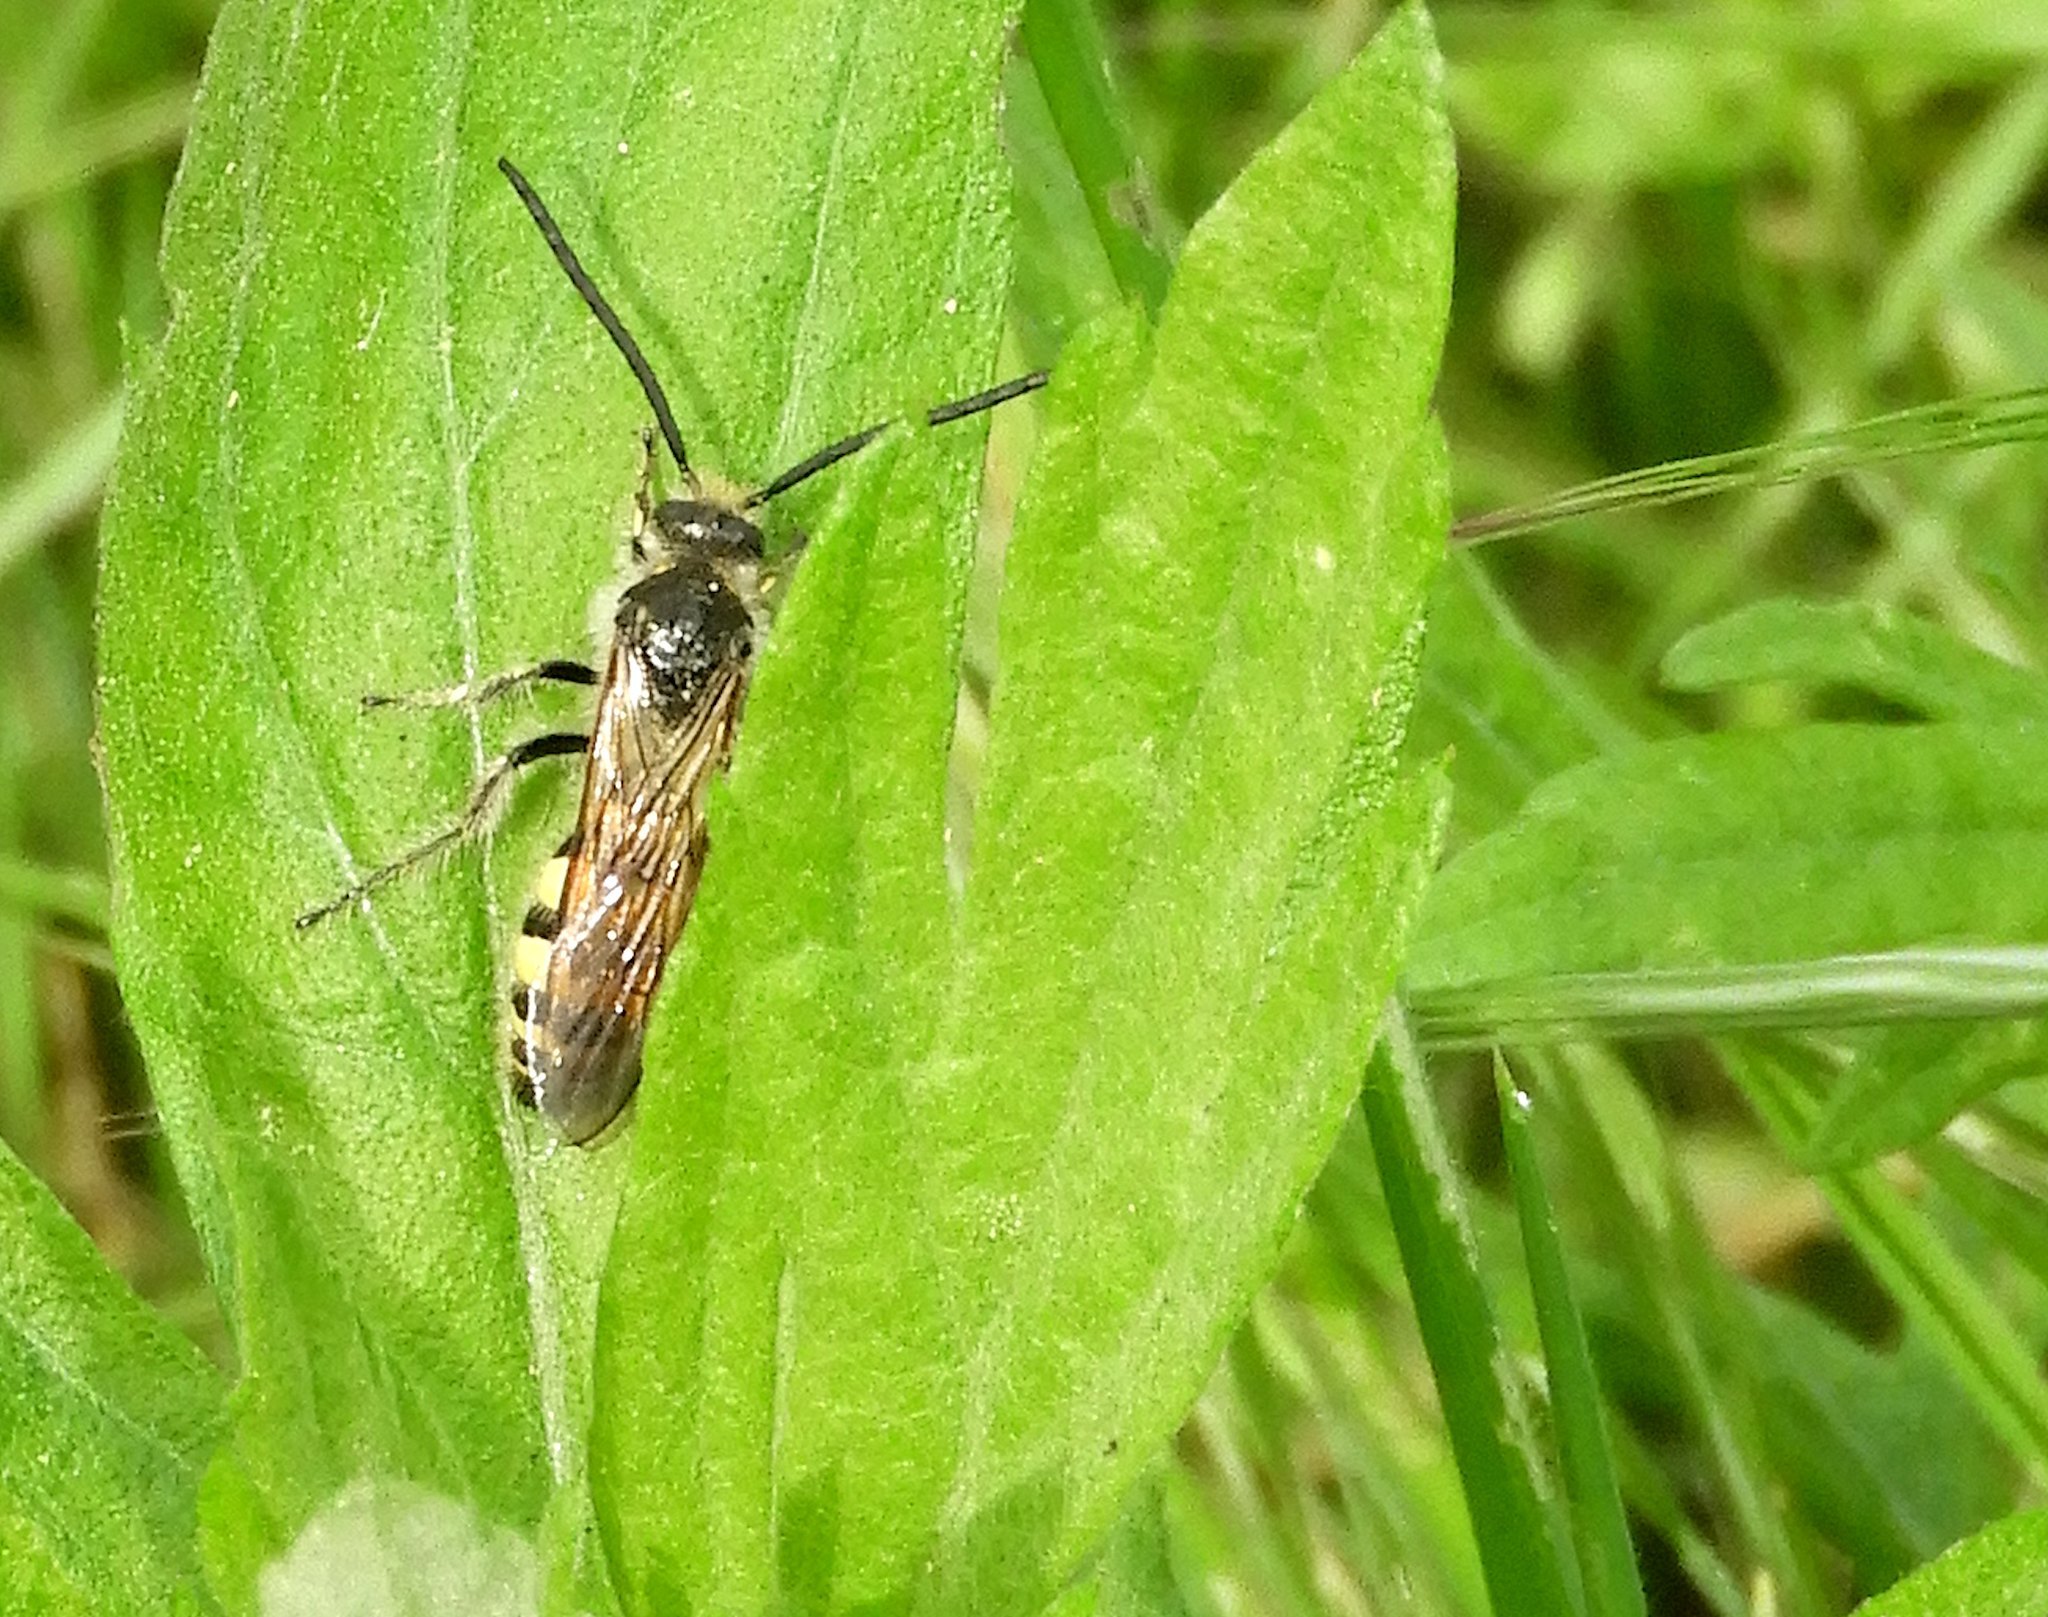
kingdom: Animalia
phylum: Arthropoda
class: Insecta
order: Hymenoptera
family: Scoliidae
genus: Dielis
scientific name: Dielis
